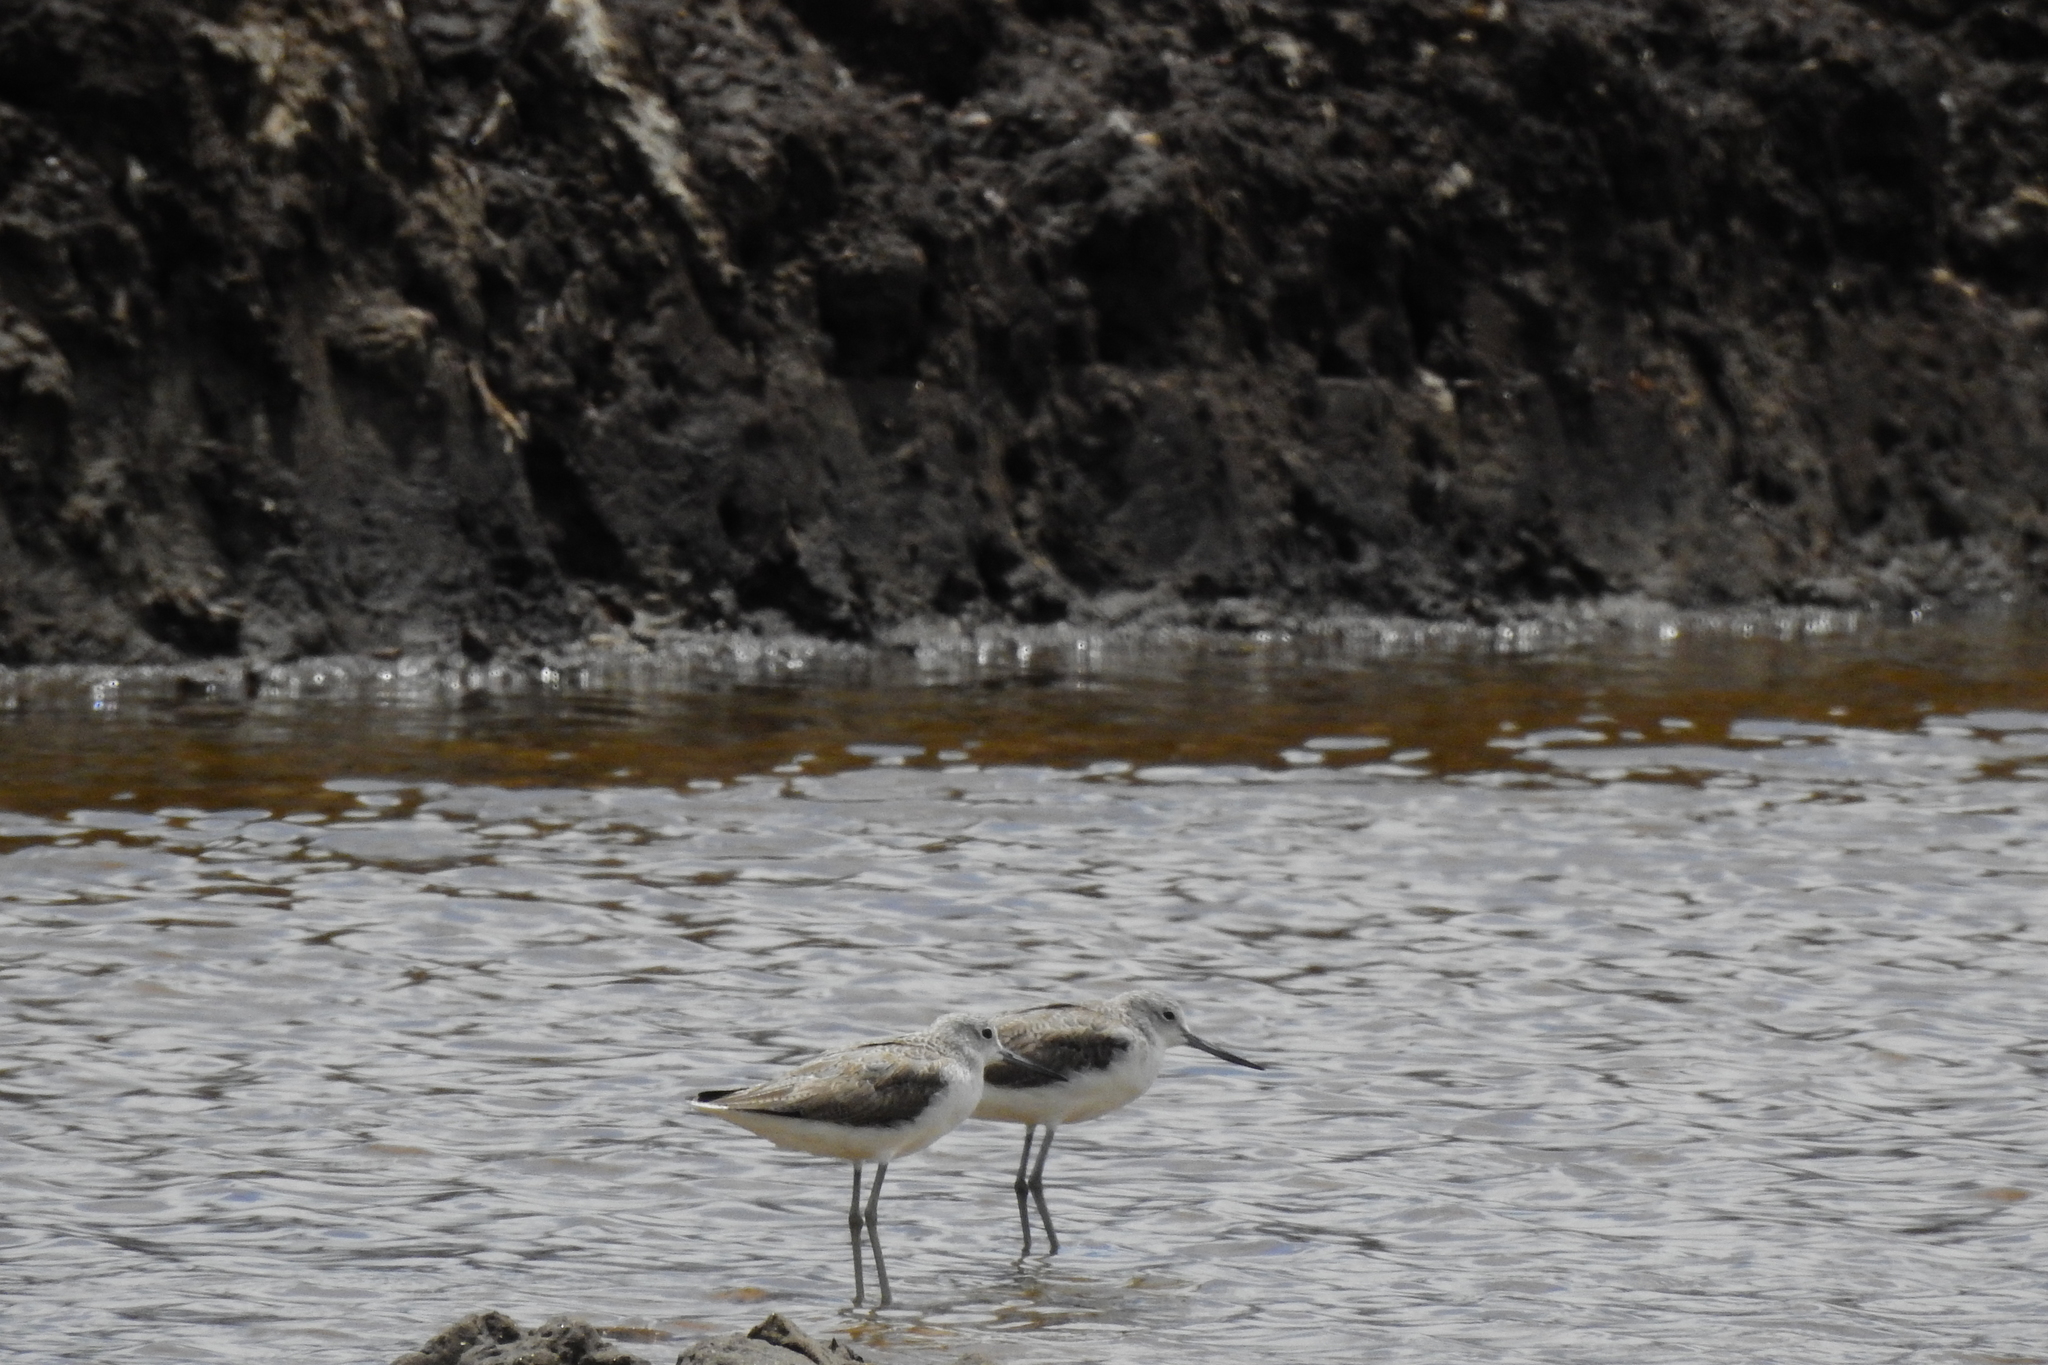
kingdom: Animalia
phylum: Chordata
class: Aves
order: Charadriiformes
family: Scolopacidae
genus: Tringa
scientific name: Tringa nebularia
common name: Common greenshank
